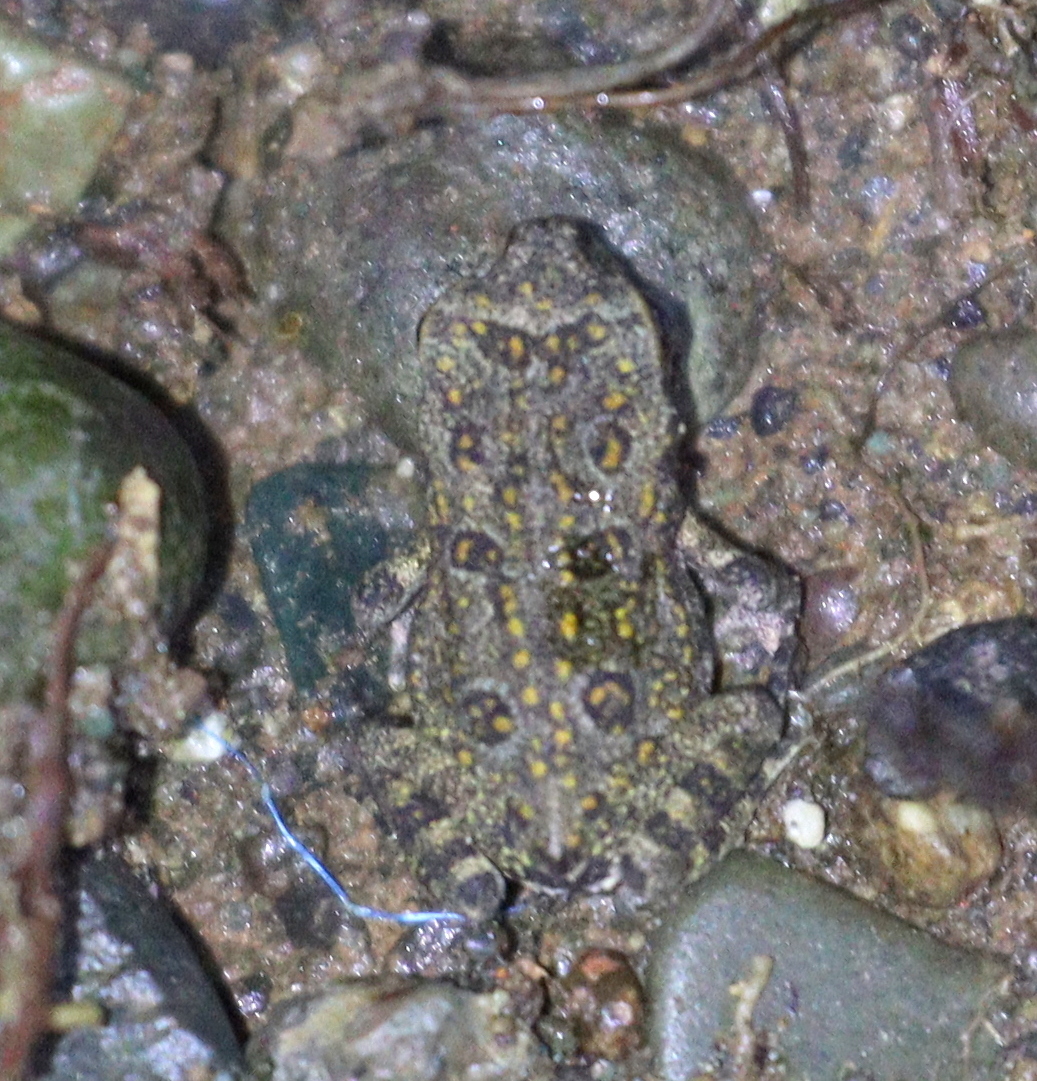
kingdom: Animalia
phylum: Chordata
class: Amphibia
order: Anura
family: Bufonidae
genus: Rhinella
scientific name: Rhinella horribilis
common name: Mesoamerican cane toad
